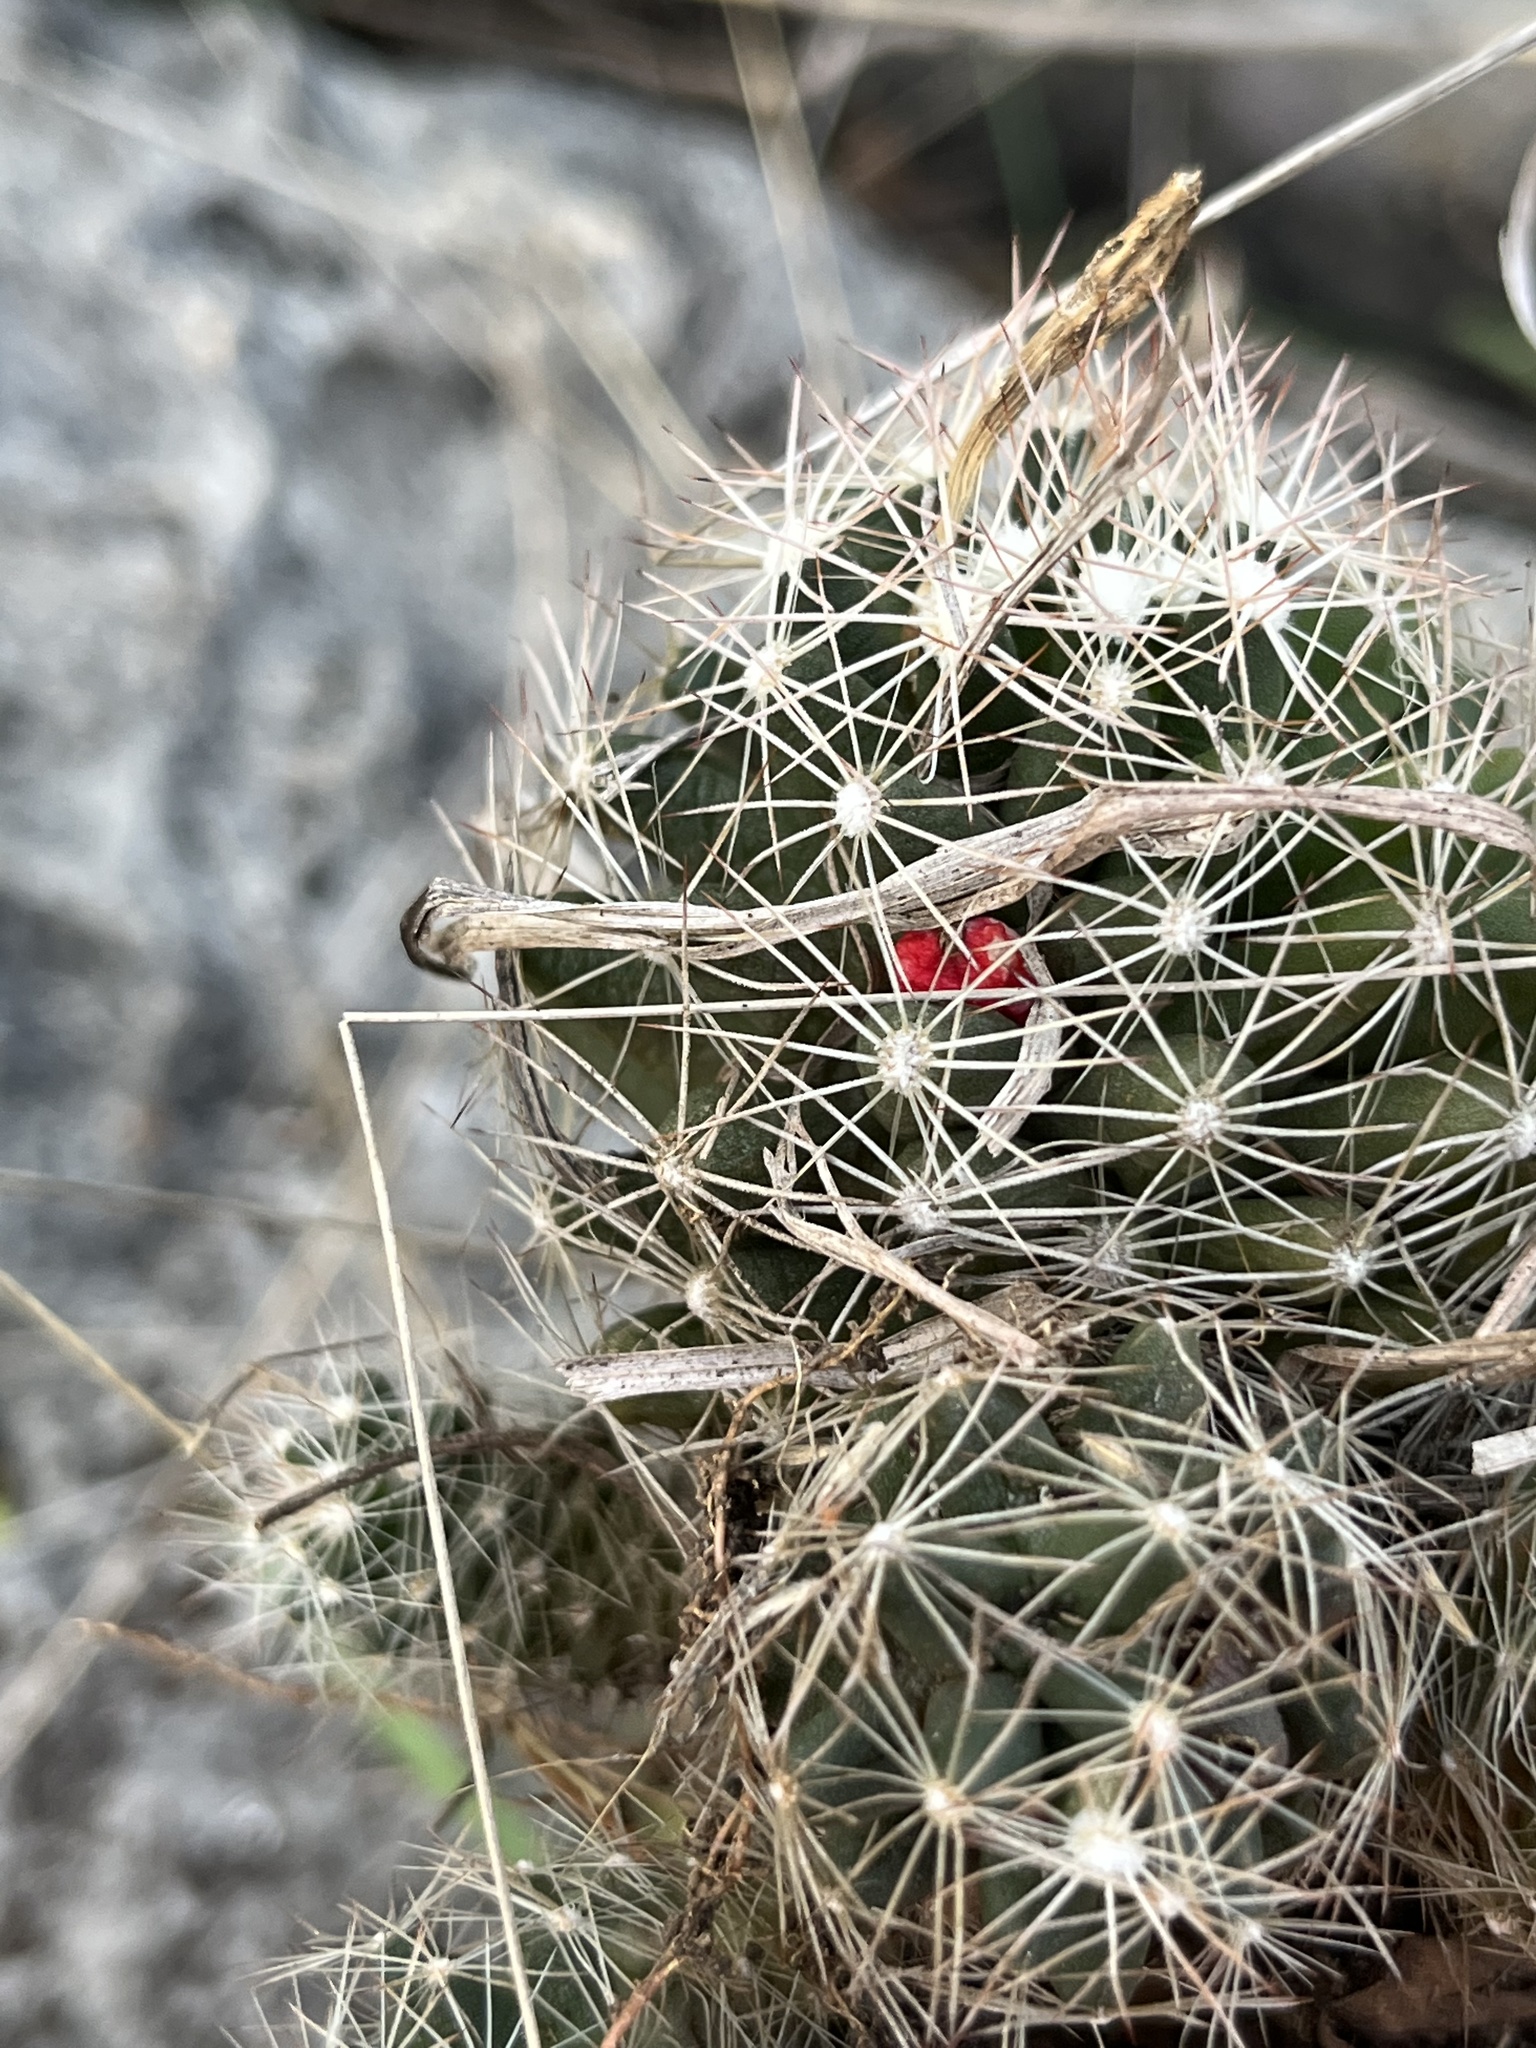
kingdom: Plantae
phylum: Tracheophyta
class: Magnoliopsida
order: Caryophyllales
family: Cactaceae
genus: Pelecyphora
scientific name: Pelecyphora missouriensis
